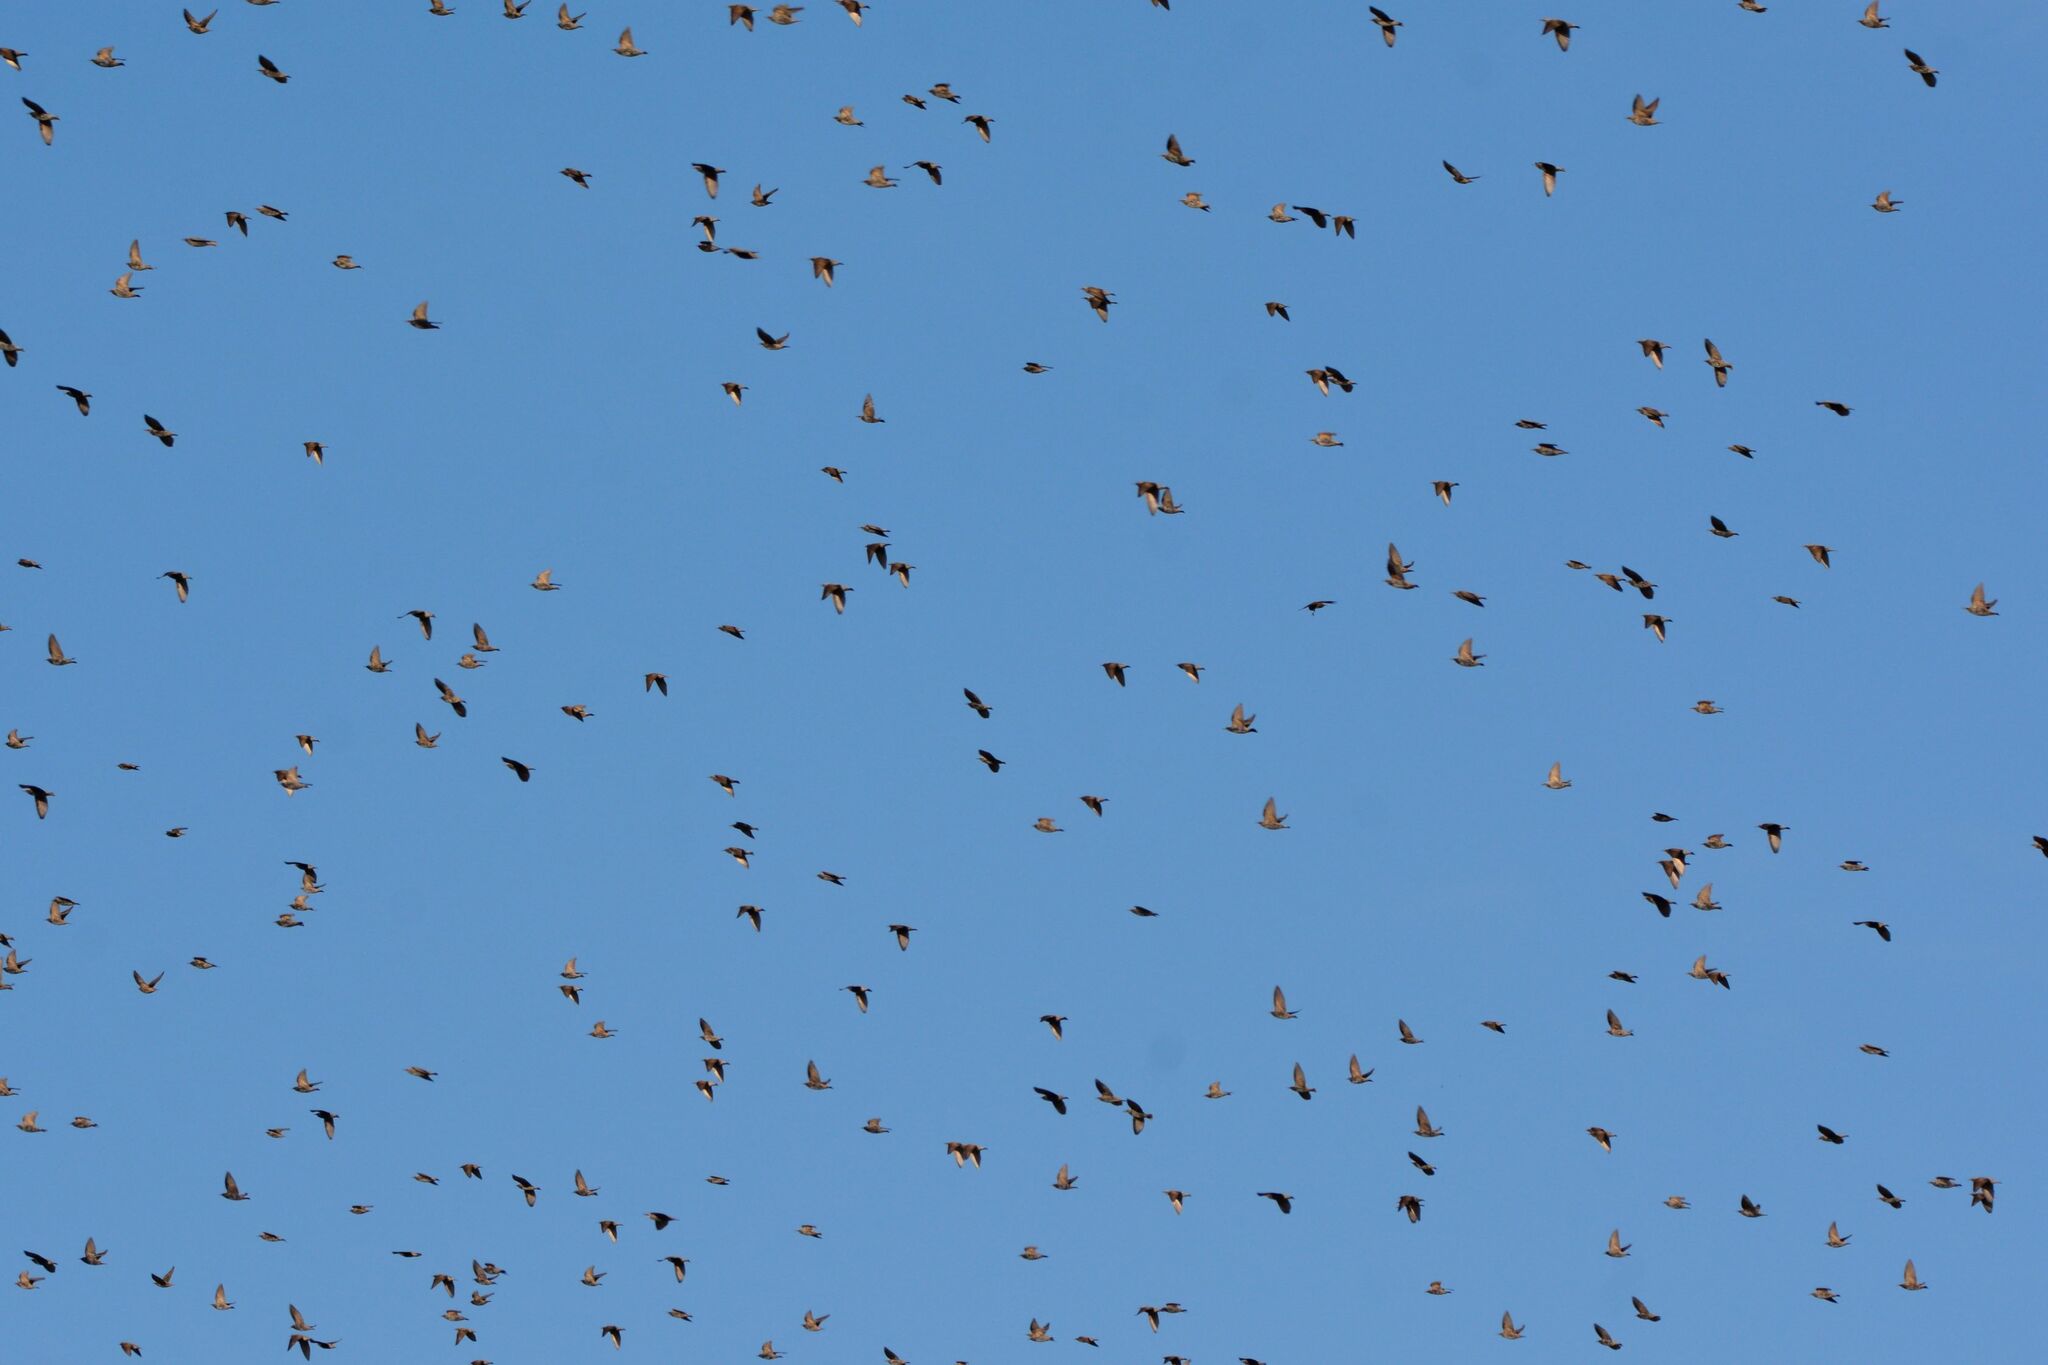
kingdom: Animalia
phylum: Chordata
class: Aves
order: Passeriformes
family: Sturnidae
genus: Sturnus
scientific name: Sturnus vulgaris
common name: Common starling
